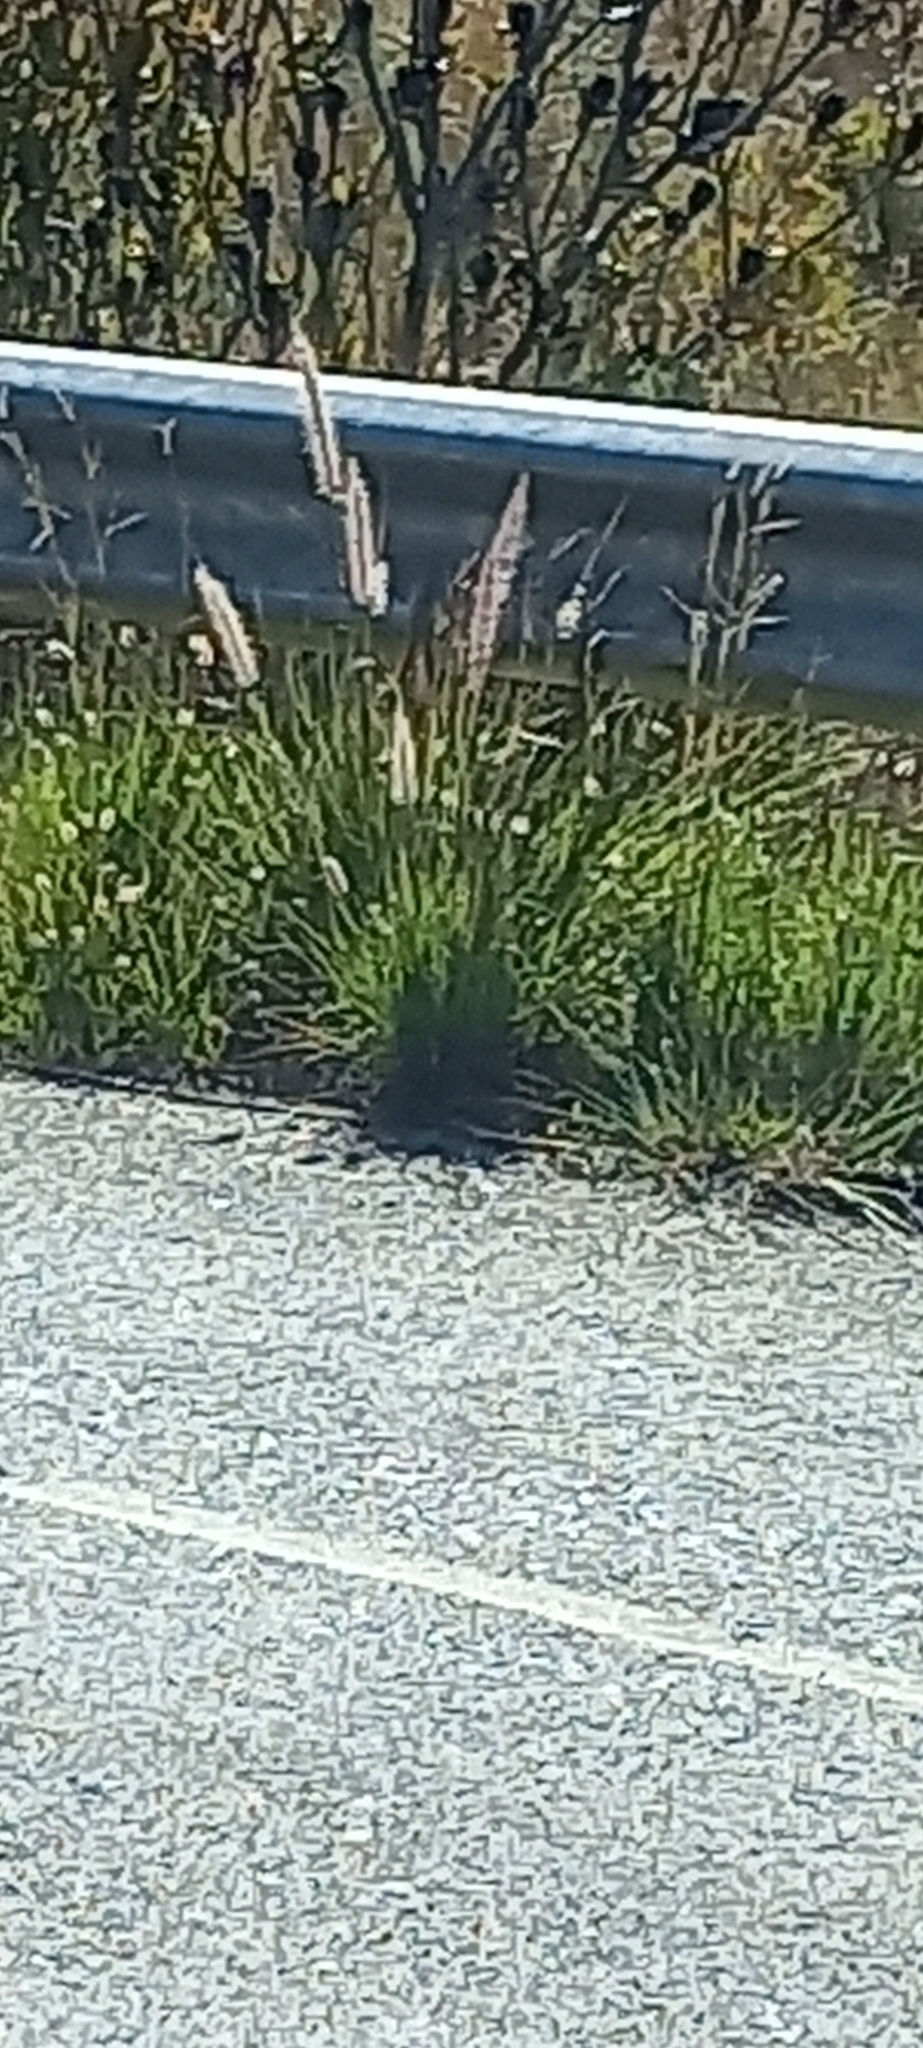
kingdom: Plantae
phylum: Tracheophyta
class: Liliopsida
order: Poales
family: Poaceae
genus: Cenchrus
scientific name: Cenchrus setaceus
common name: Crimson fountaingrass
